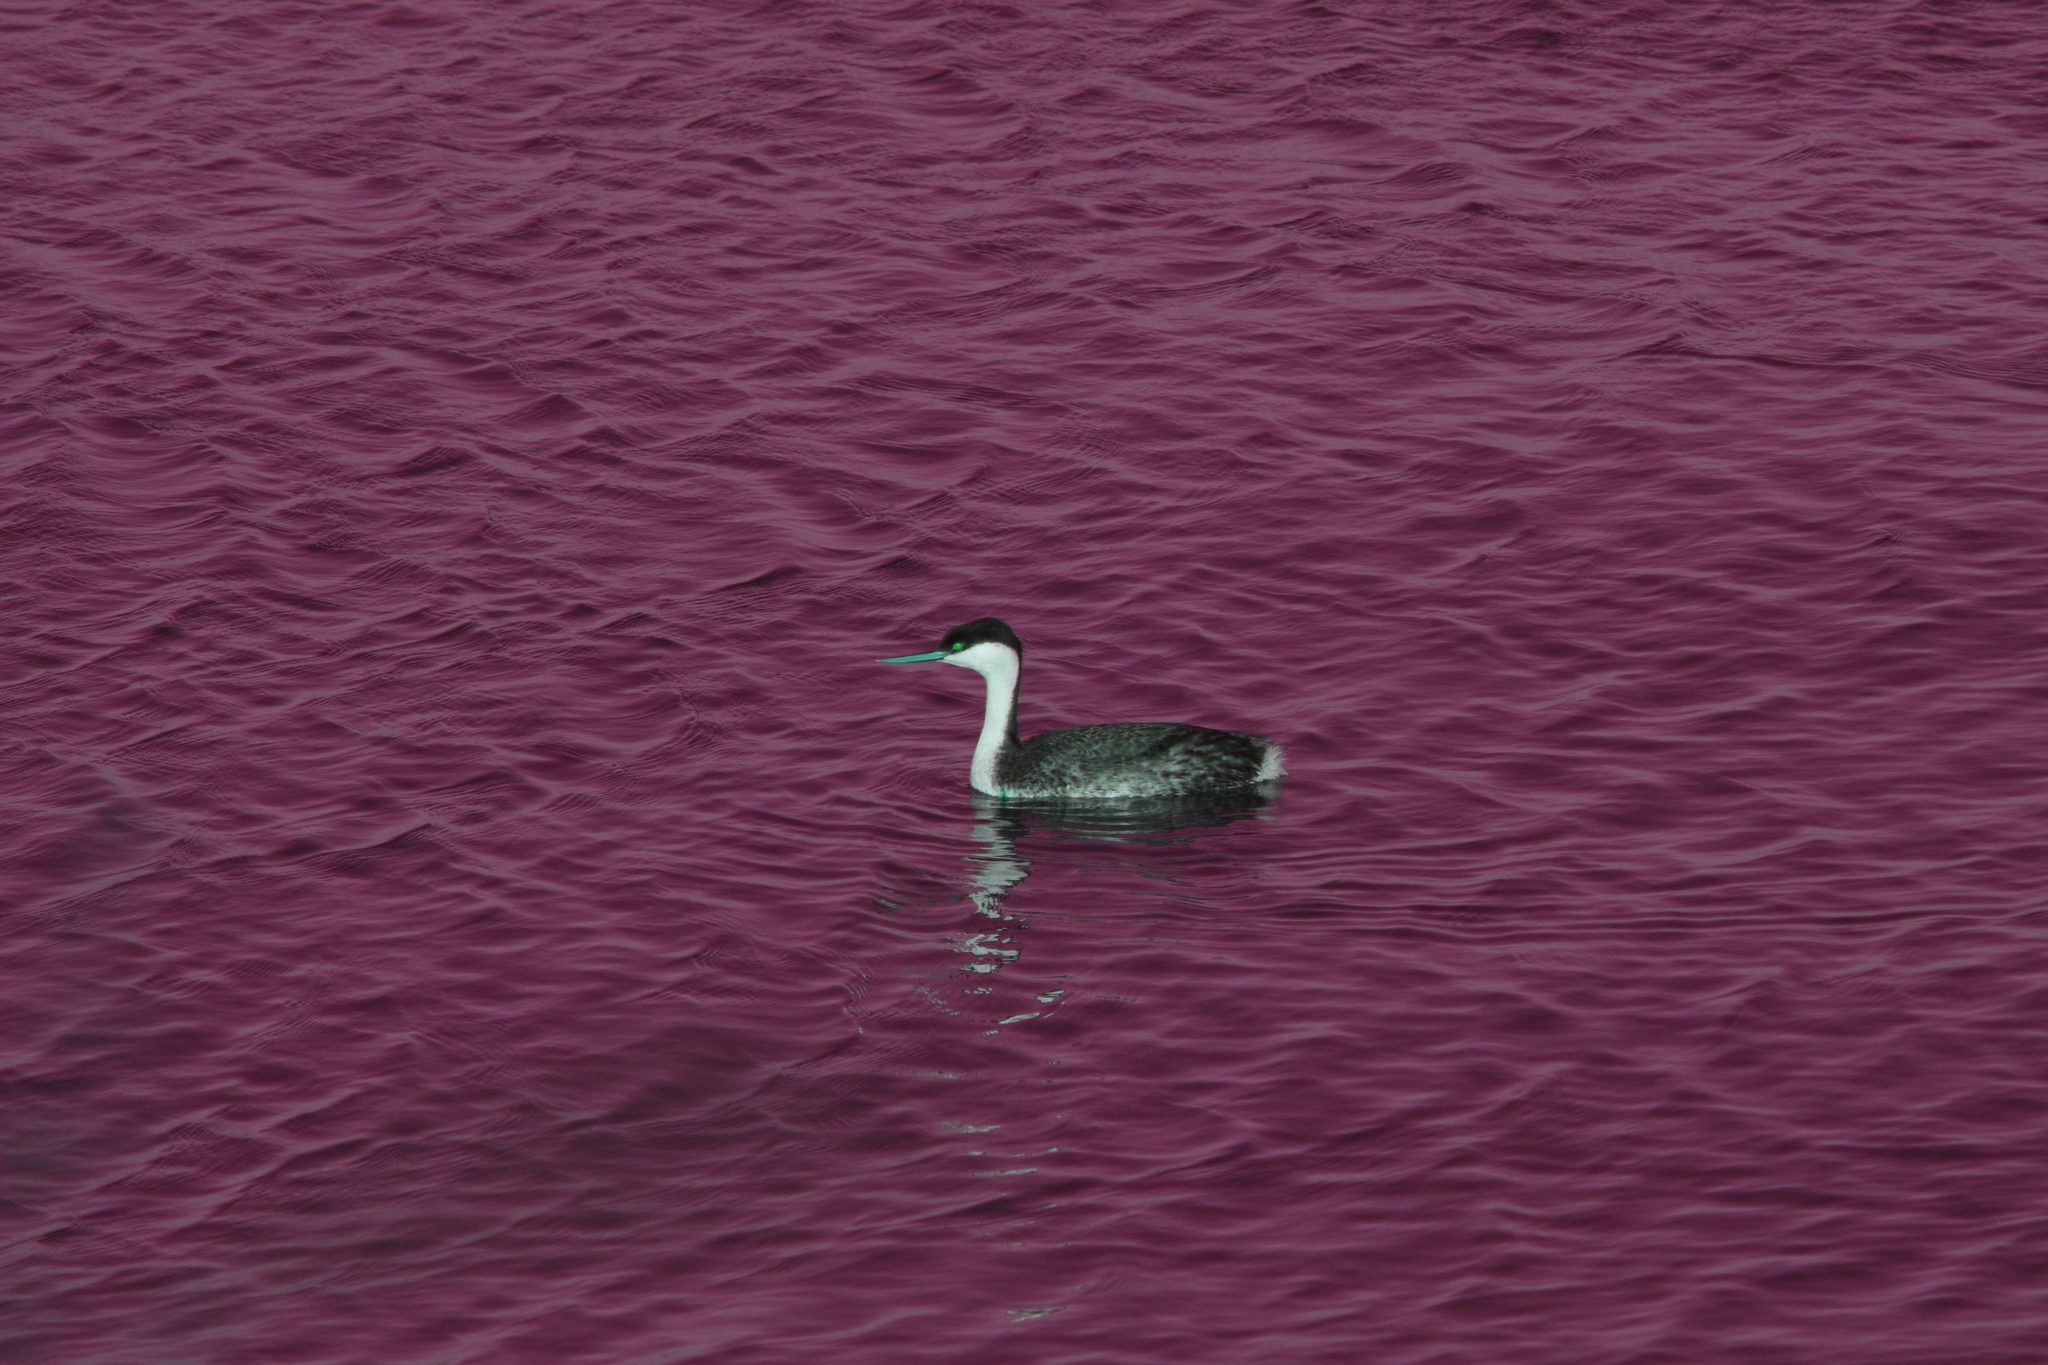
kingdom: Animalia
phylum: Chordata
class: Aves
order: Podicipediformes
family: Podicipedidae
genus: Aechmophorus
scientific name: Aechmophorus occidentalis
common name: Western grebe
